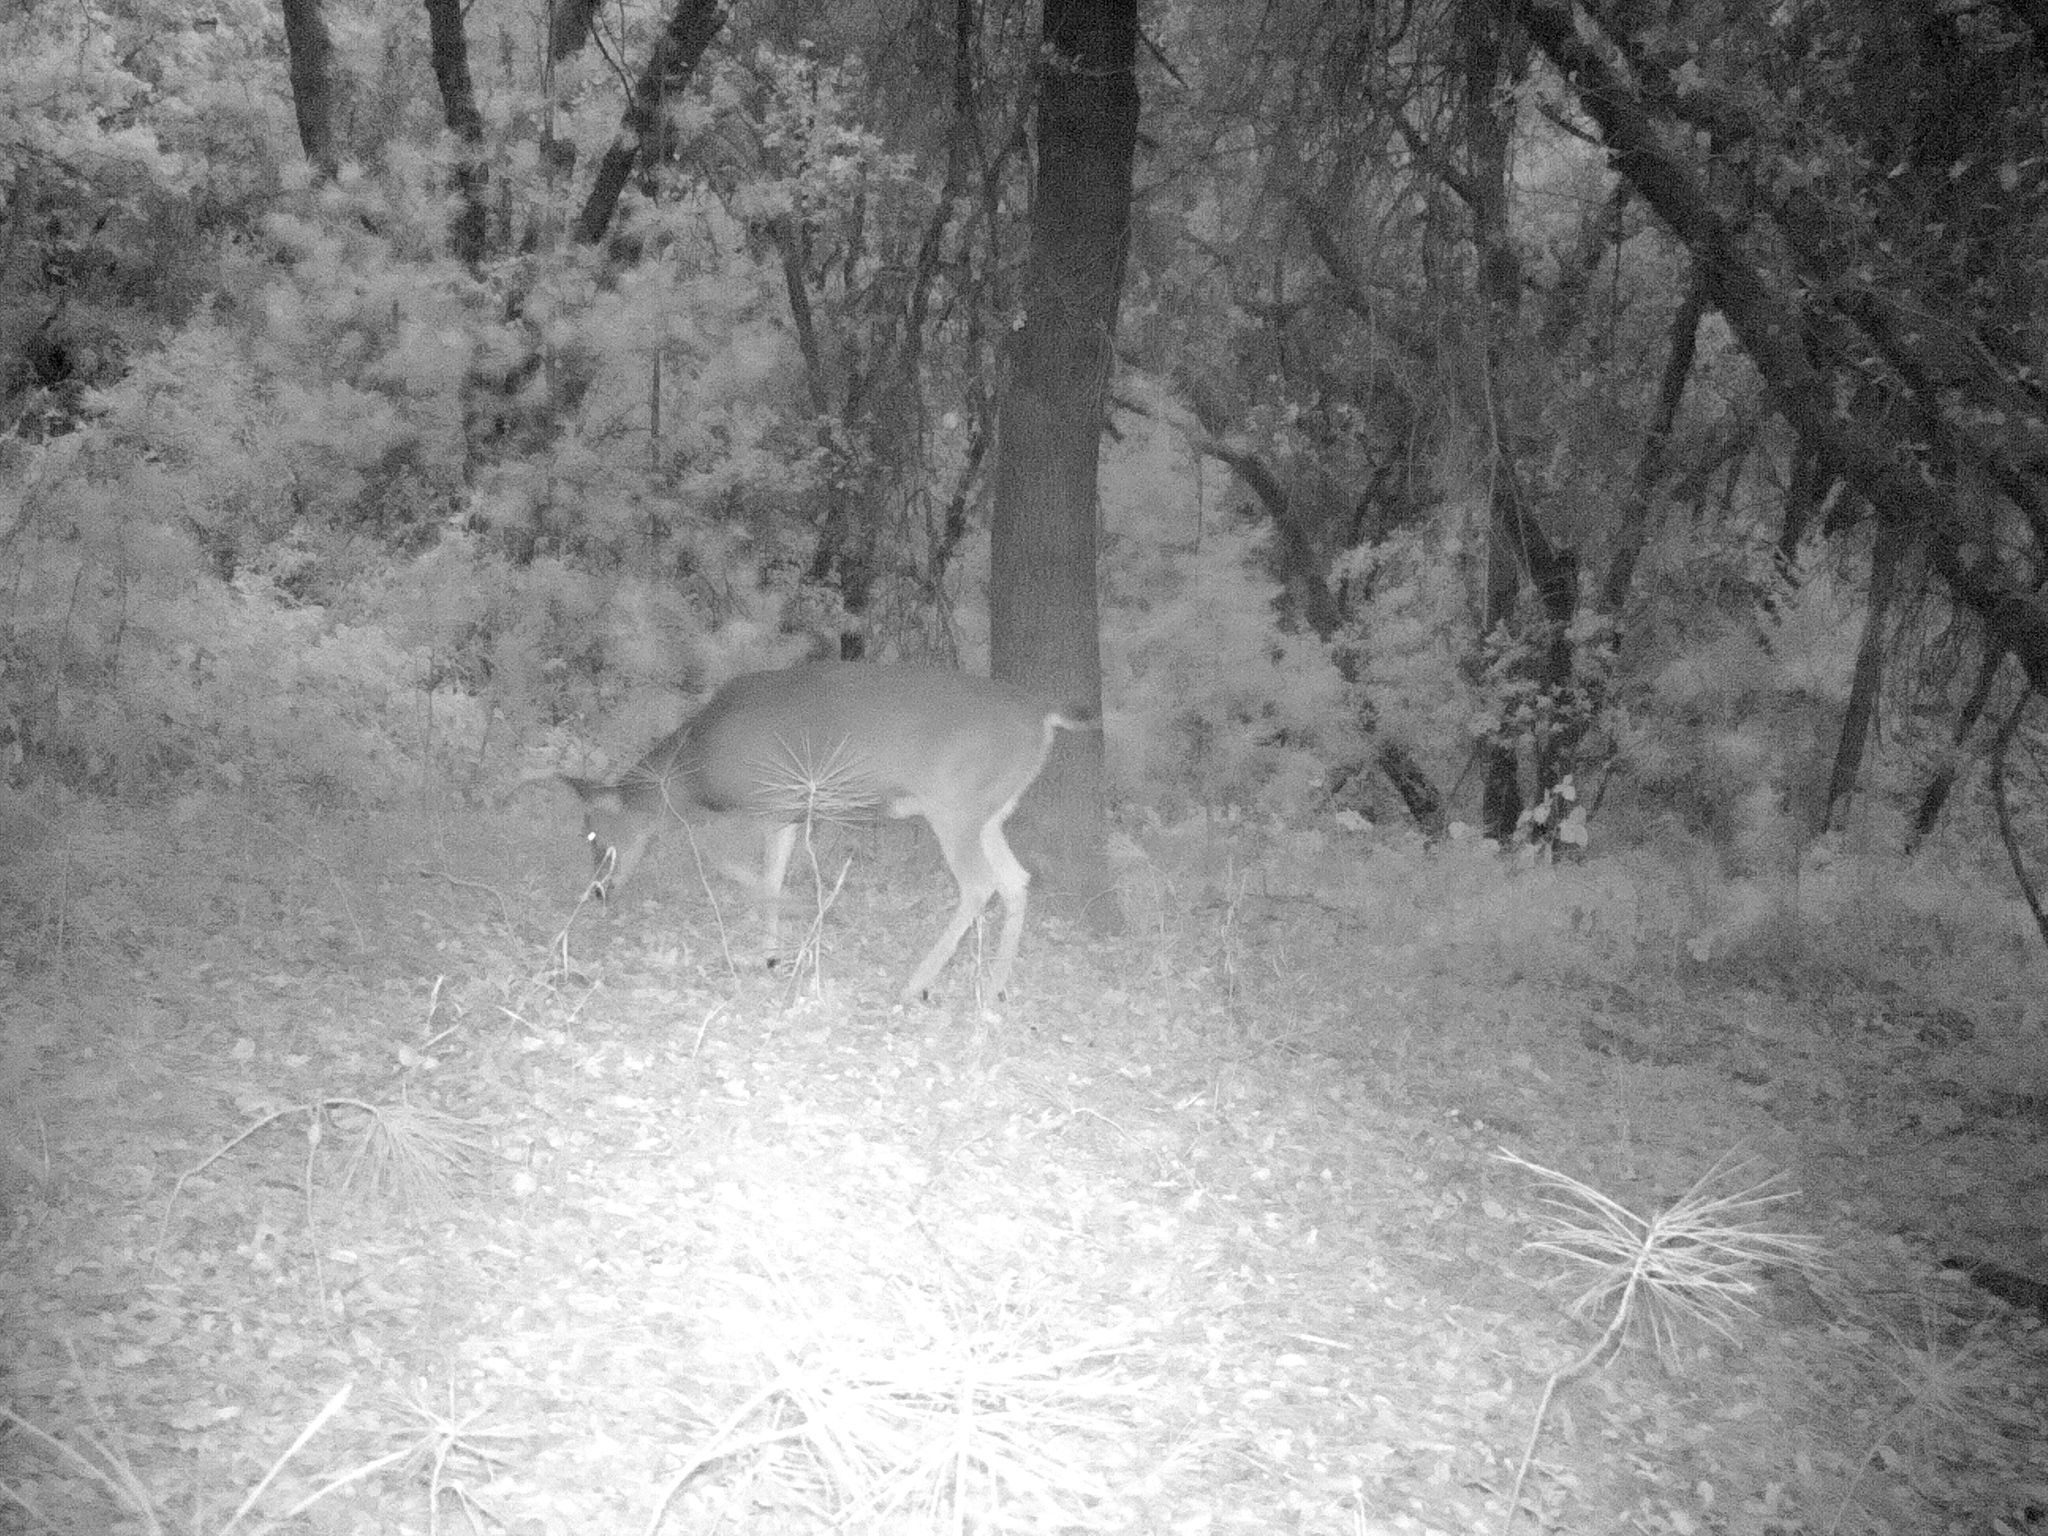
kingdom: Animalia
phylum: Chordata
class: Mammalia
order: Artiodactyla
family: Cervidae
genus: Odocoileus
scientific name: Odocoileus hemionus
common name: Mule deer
